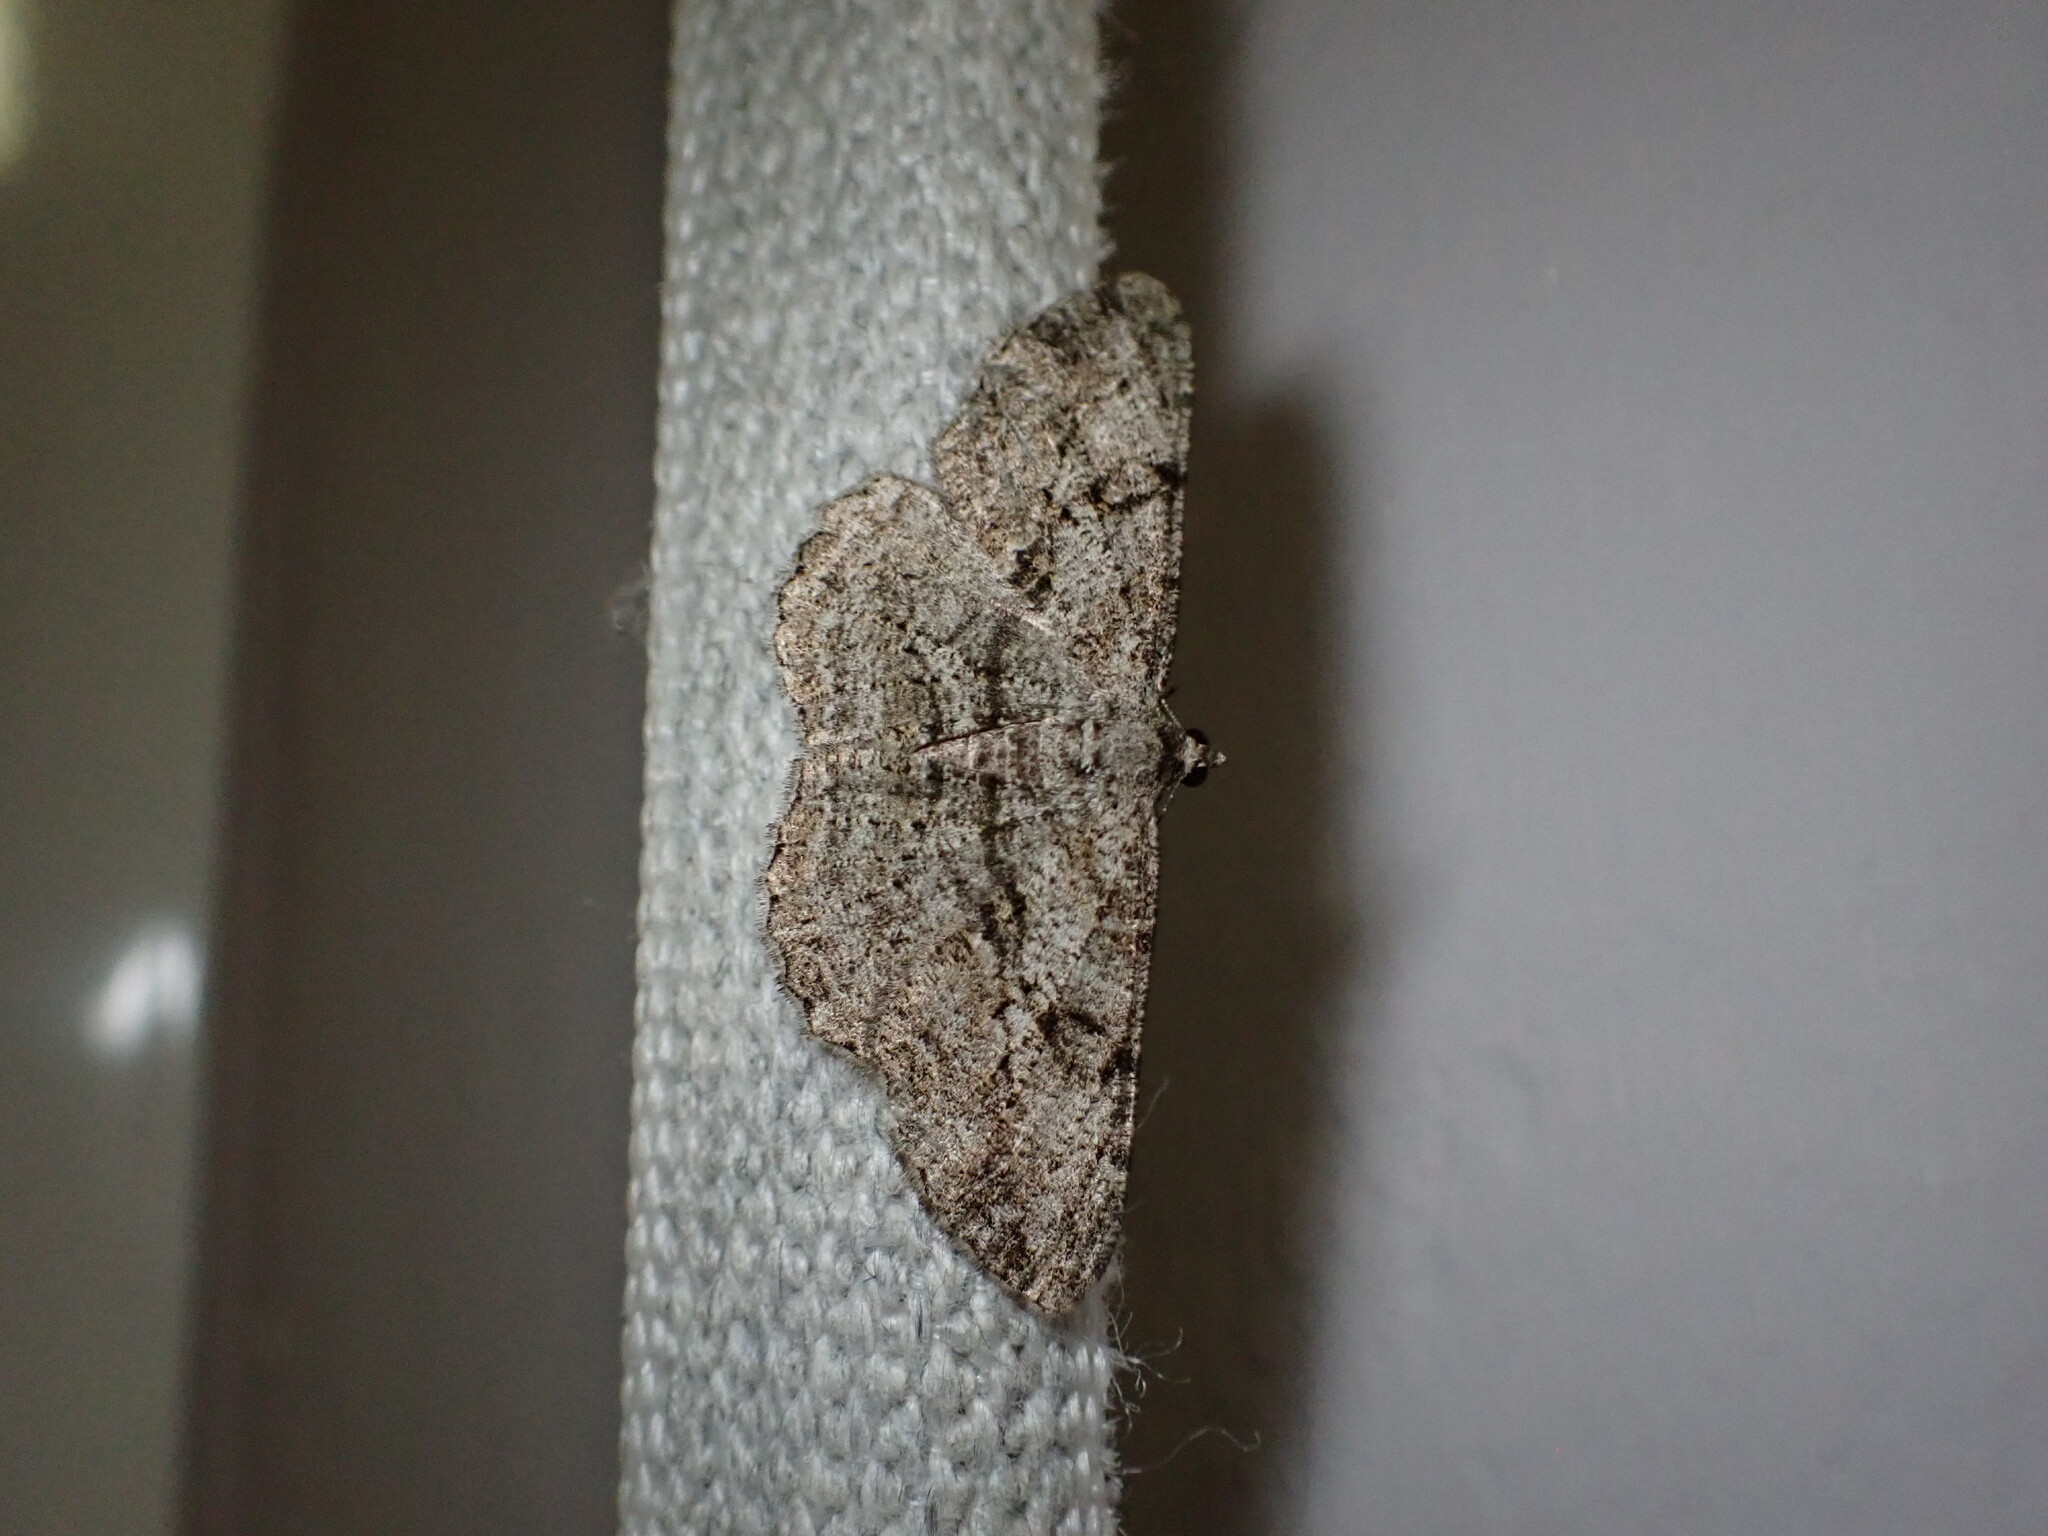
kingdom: Animalia
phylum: Arthropoda
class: Insecta
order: Lepidoptera
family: Geometridae
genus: Peribatodes
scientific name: Peribatodes rhomboidaria
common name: Willow beauty
